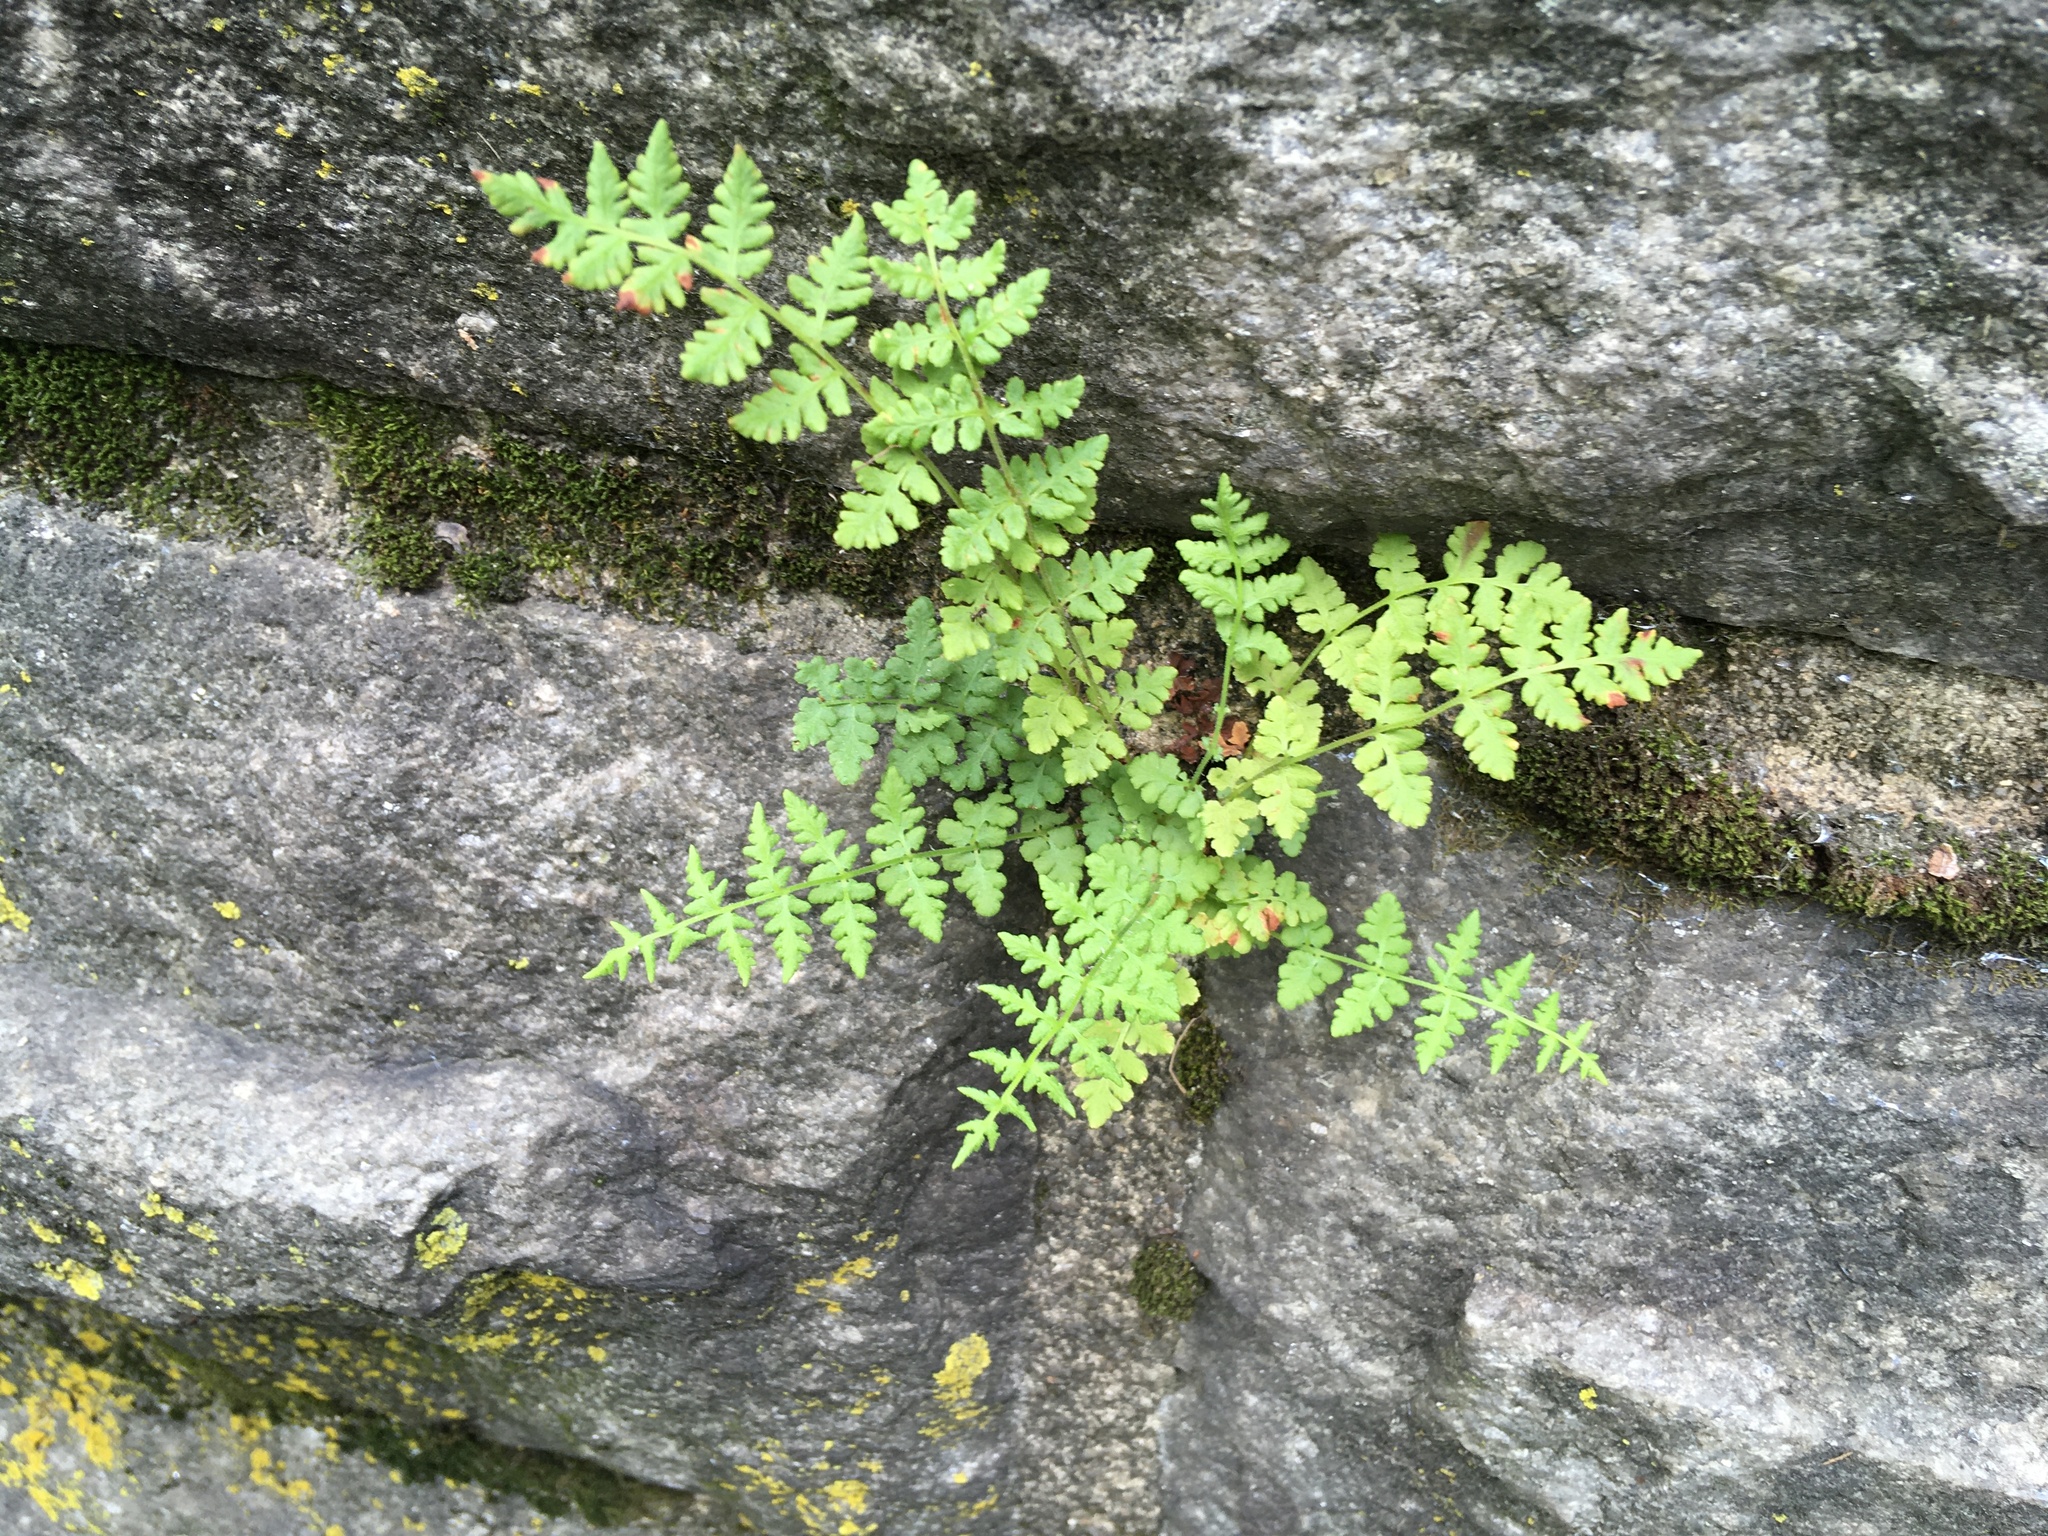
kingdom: Plantae
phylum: Tracheophyta
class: Polypodiopsida
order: Polypodiales
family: Woodsiaceae
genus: Physematium
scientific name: Physematium obtusum
